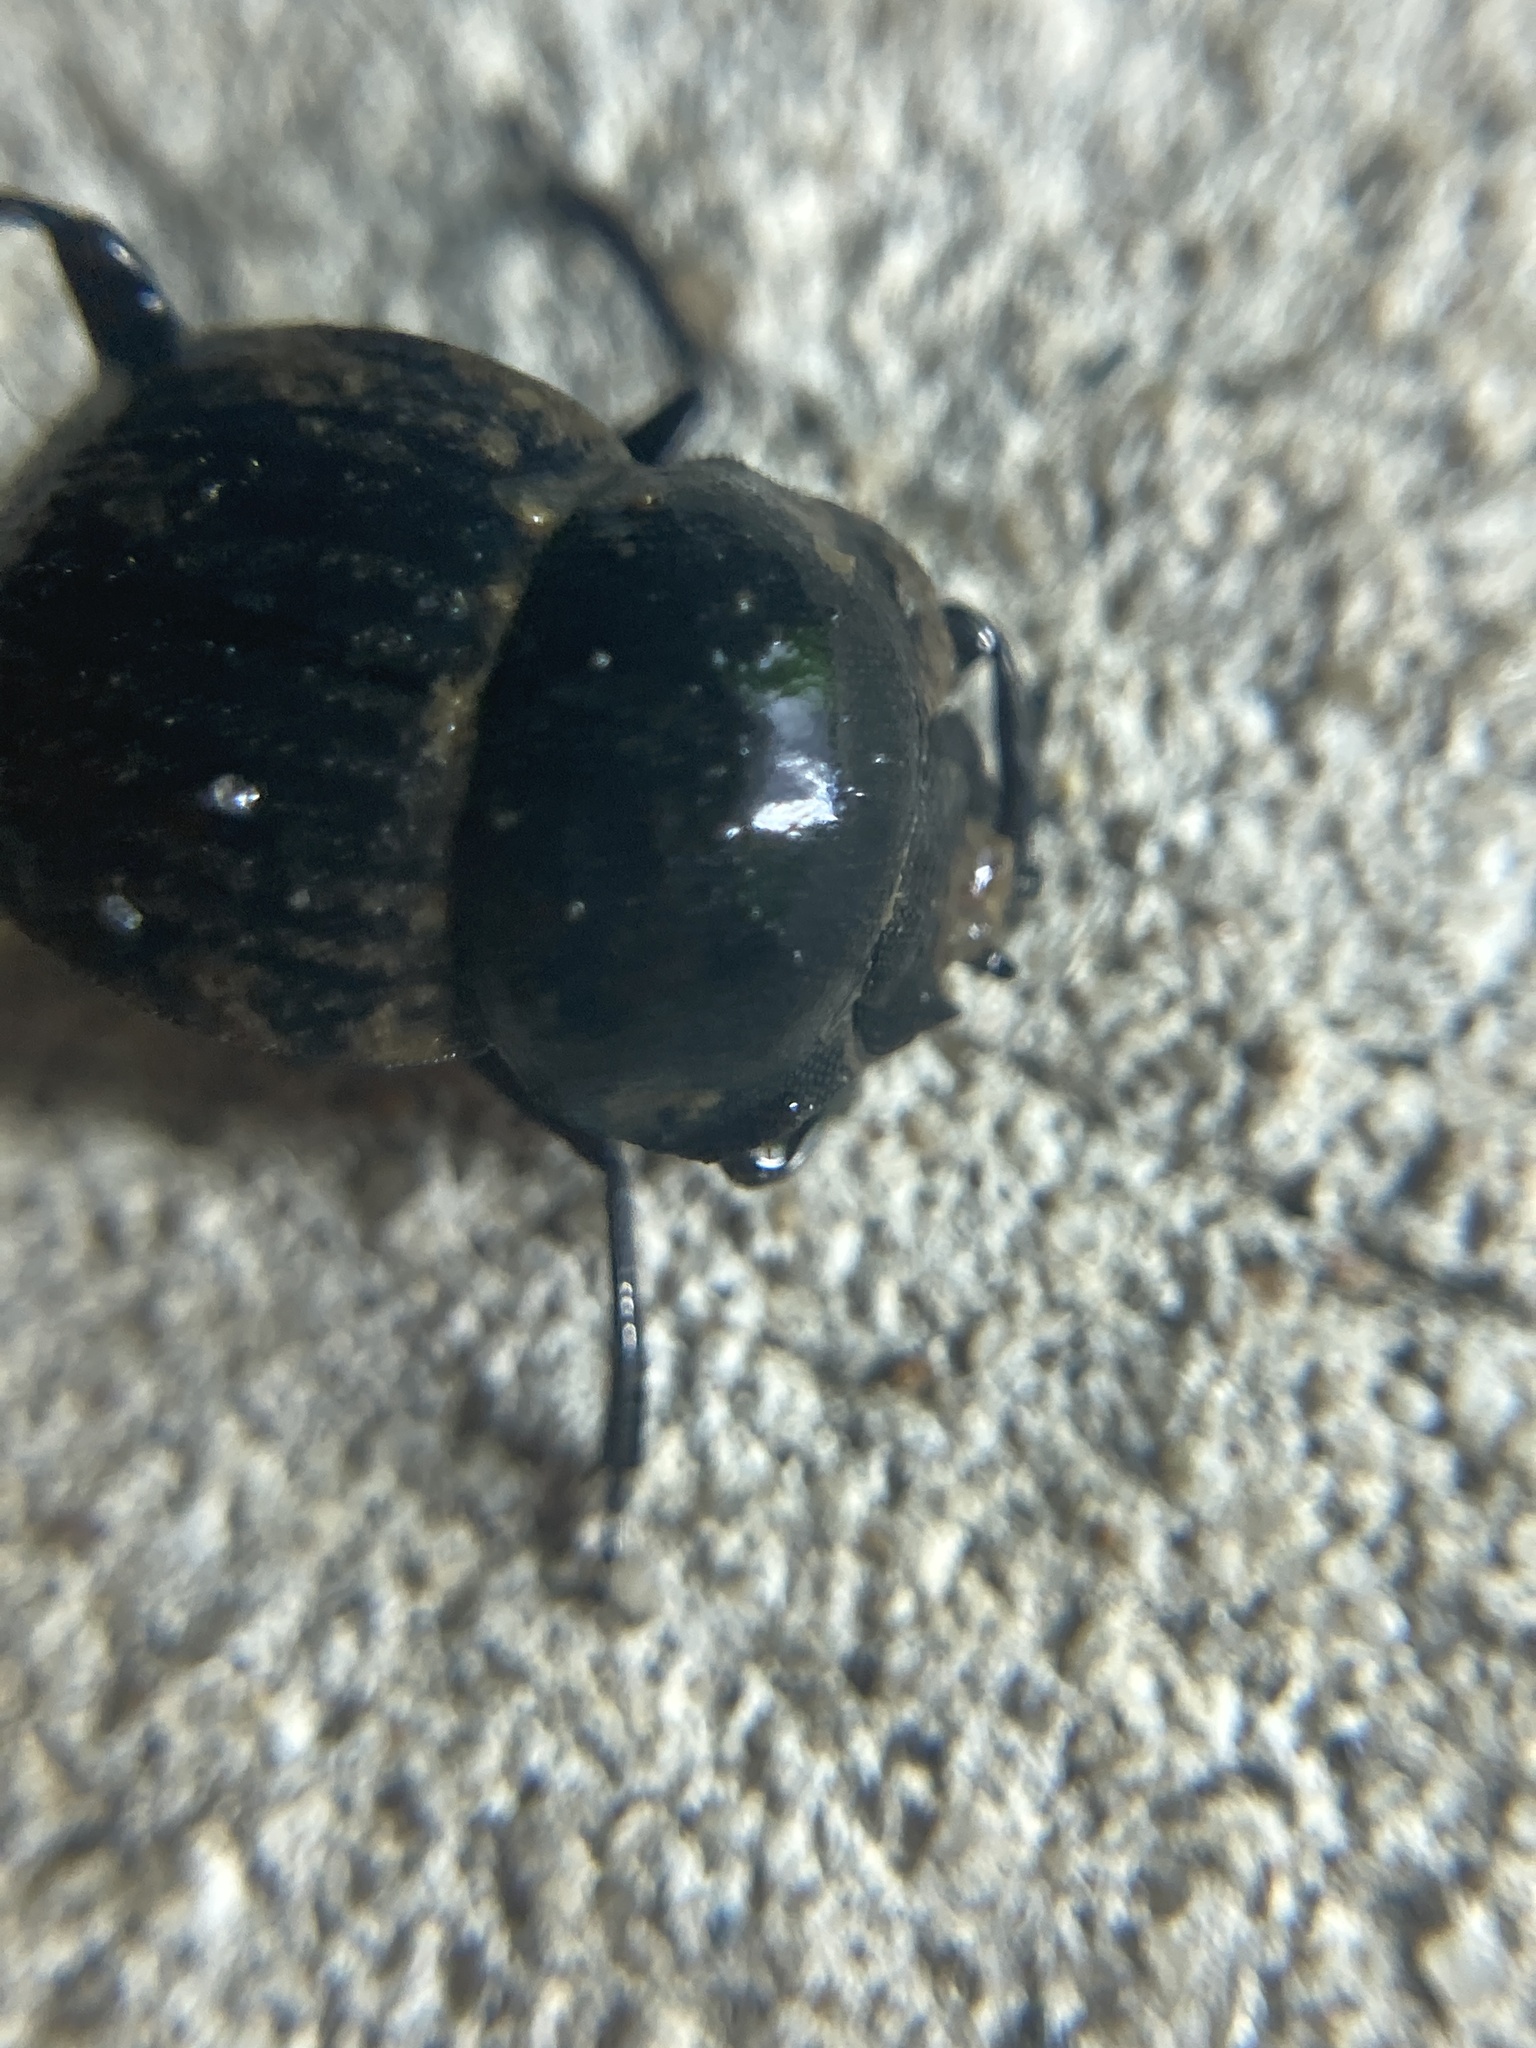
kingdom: Animalia
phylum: Arthropoda
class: Insecta
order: Coleoptera
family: Scarabaeidae
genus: Cephalodesmius
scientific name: Cephalodesmius armiger
